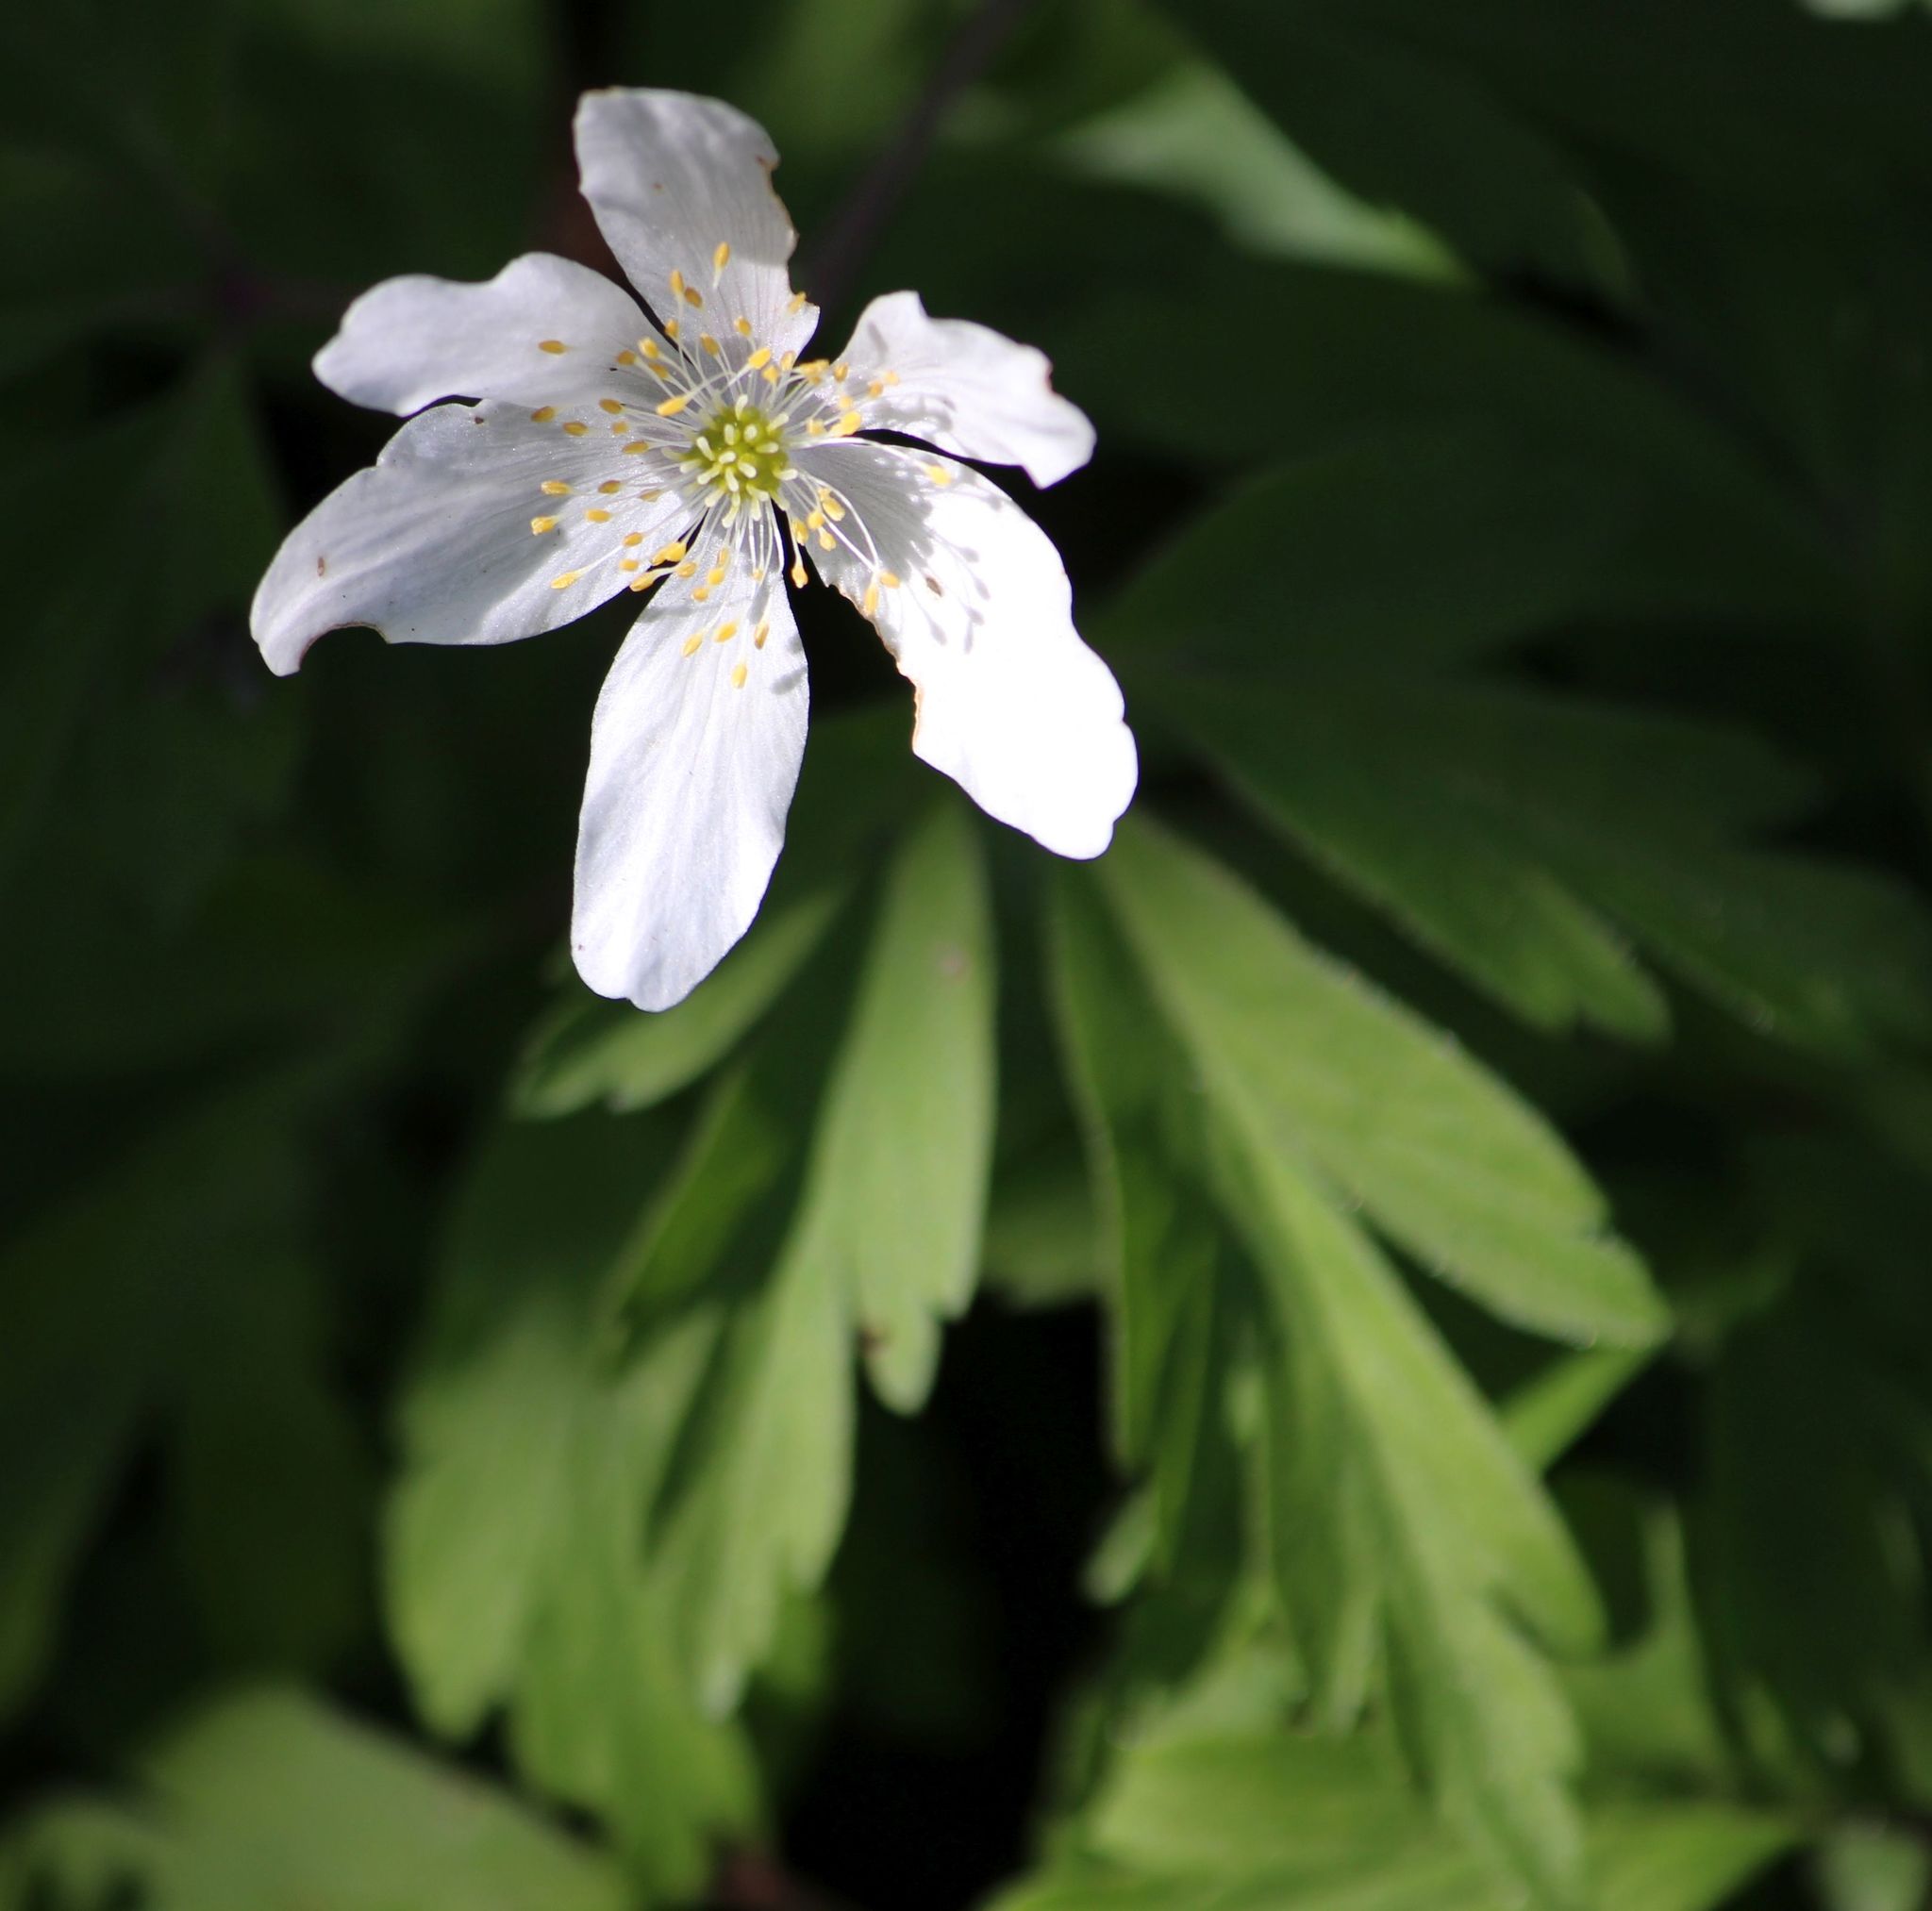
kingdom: Plantae
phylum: Tracheophyta
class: Magnoliopsida
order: Ranunculales
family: Ranunculaceae
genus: Anemone
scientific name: Anemone nemorosa
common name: Wood anemone
